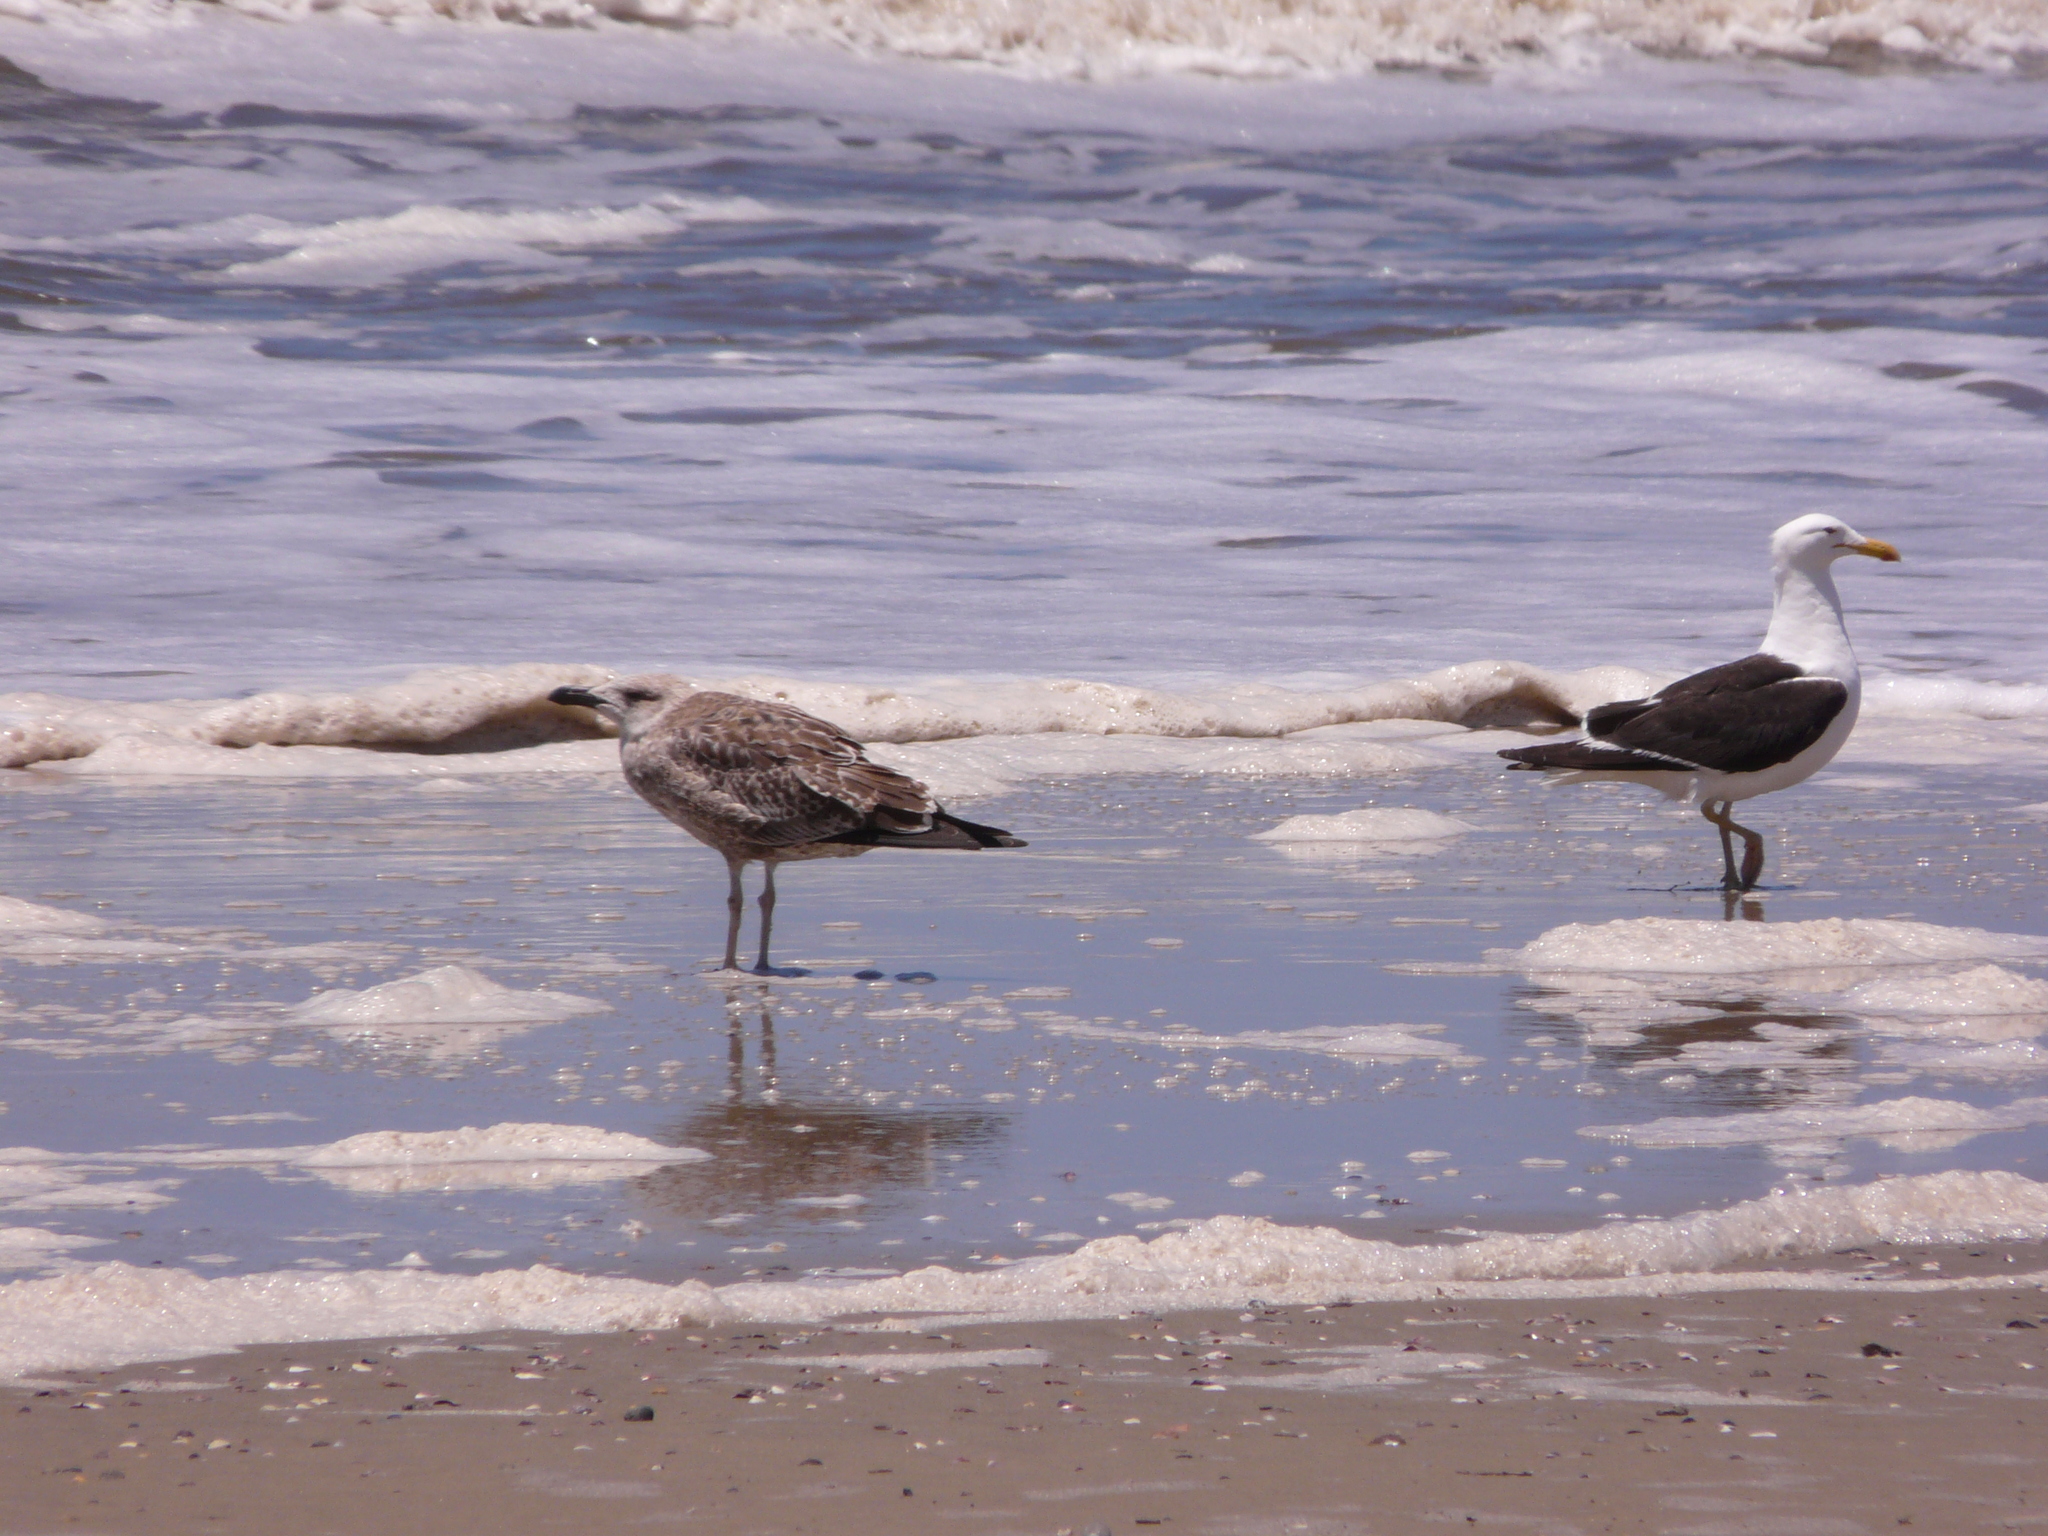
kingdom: Animalia
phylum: Chordata
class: Aves
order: Charadriiformes
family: Laridae
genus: Larus
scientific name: Larus dominicanus
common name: Kelp gull
